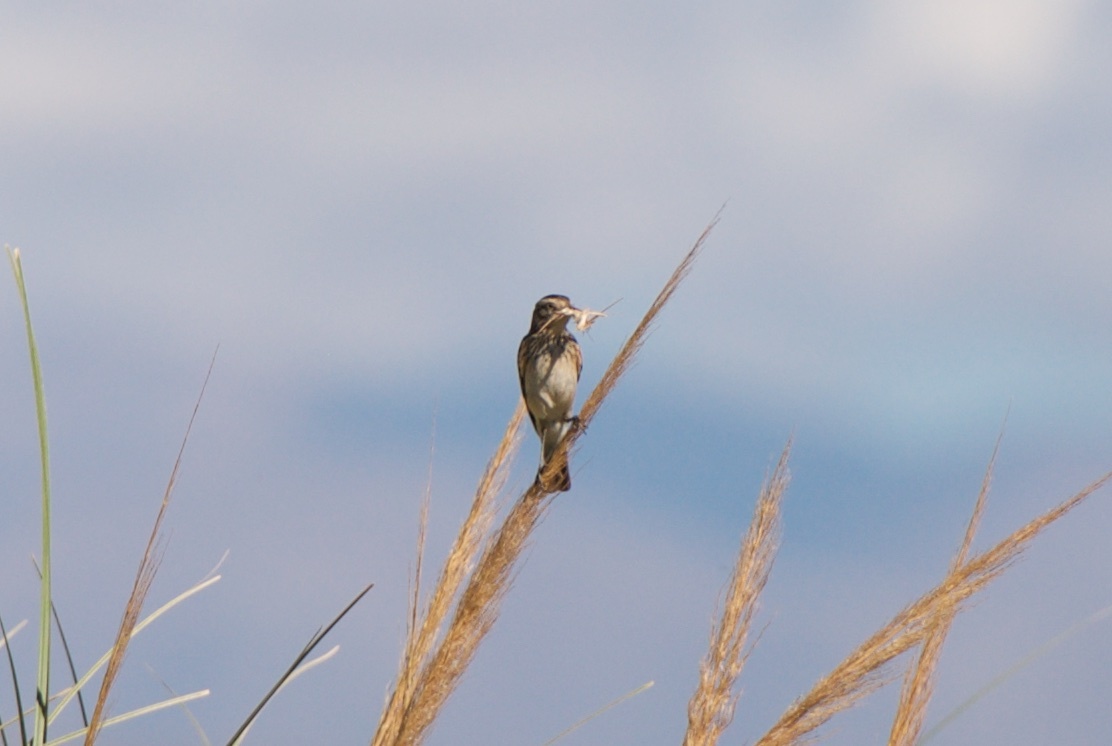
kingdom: Animalia
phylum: Chordata
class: Aves
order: Passeriformes
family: Tyrannidae
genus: Hymenops
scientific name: Hymenops perspicillatus
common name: Spectacled tyrant
